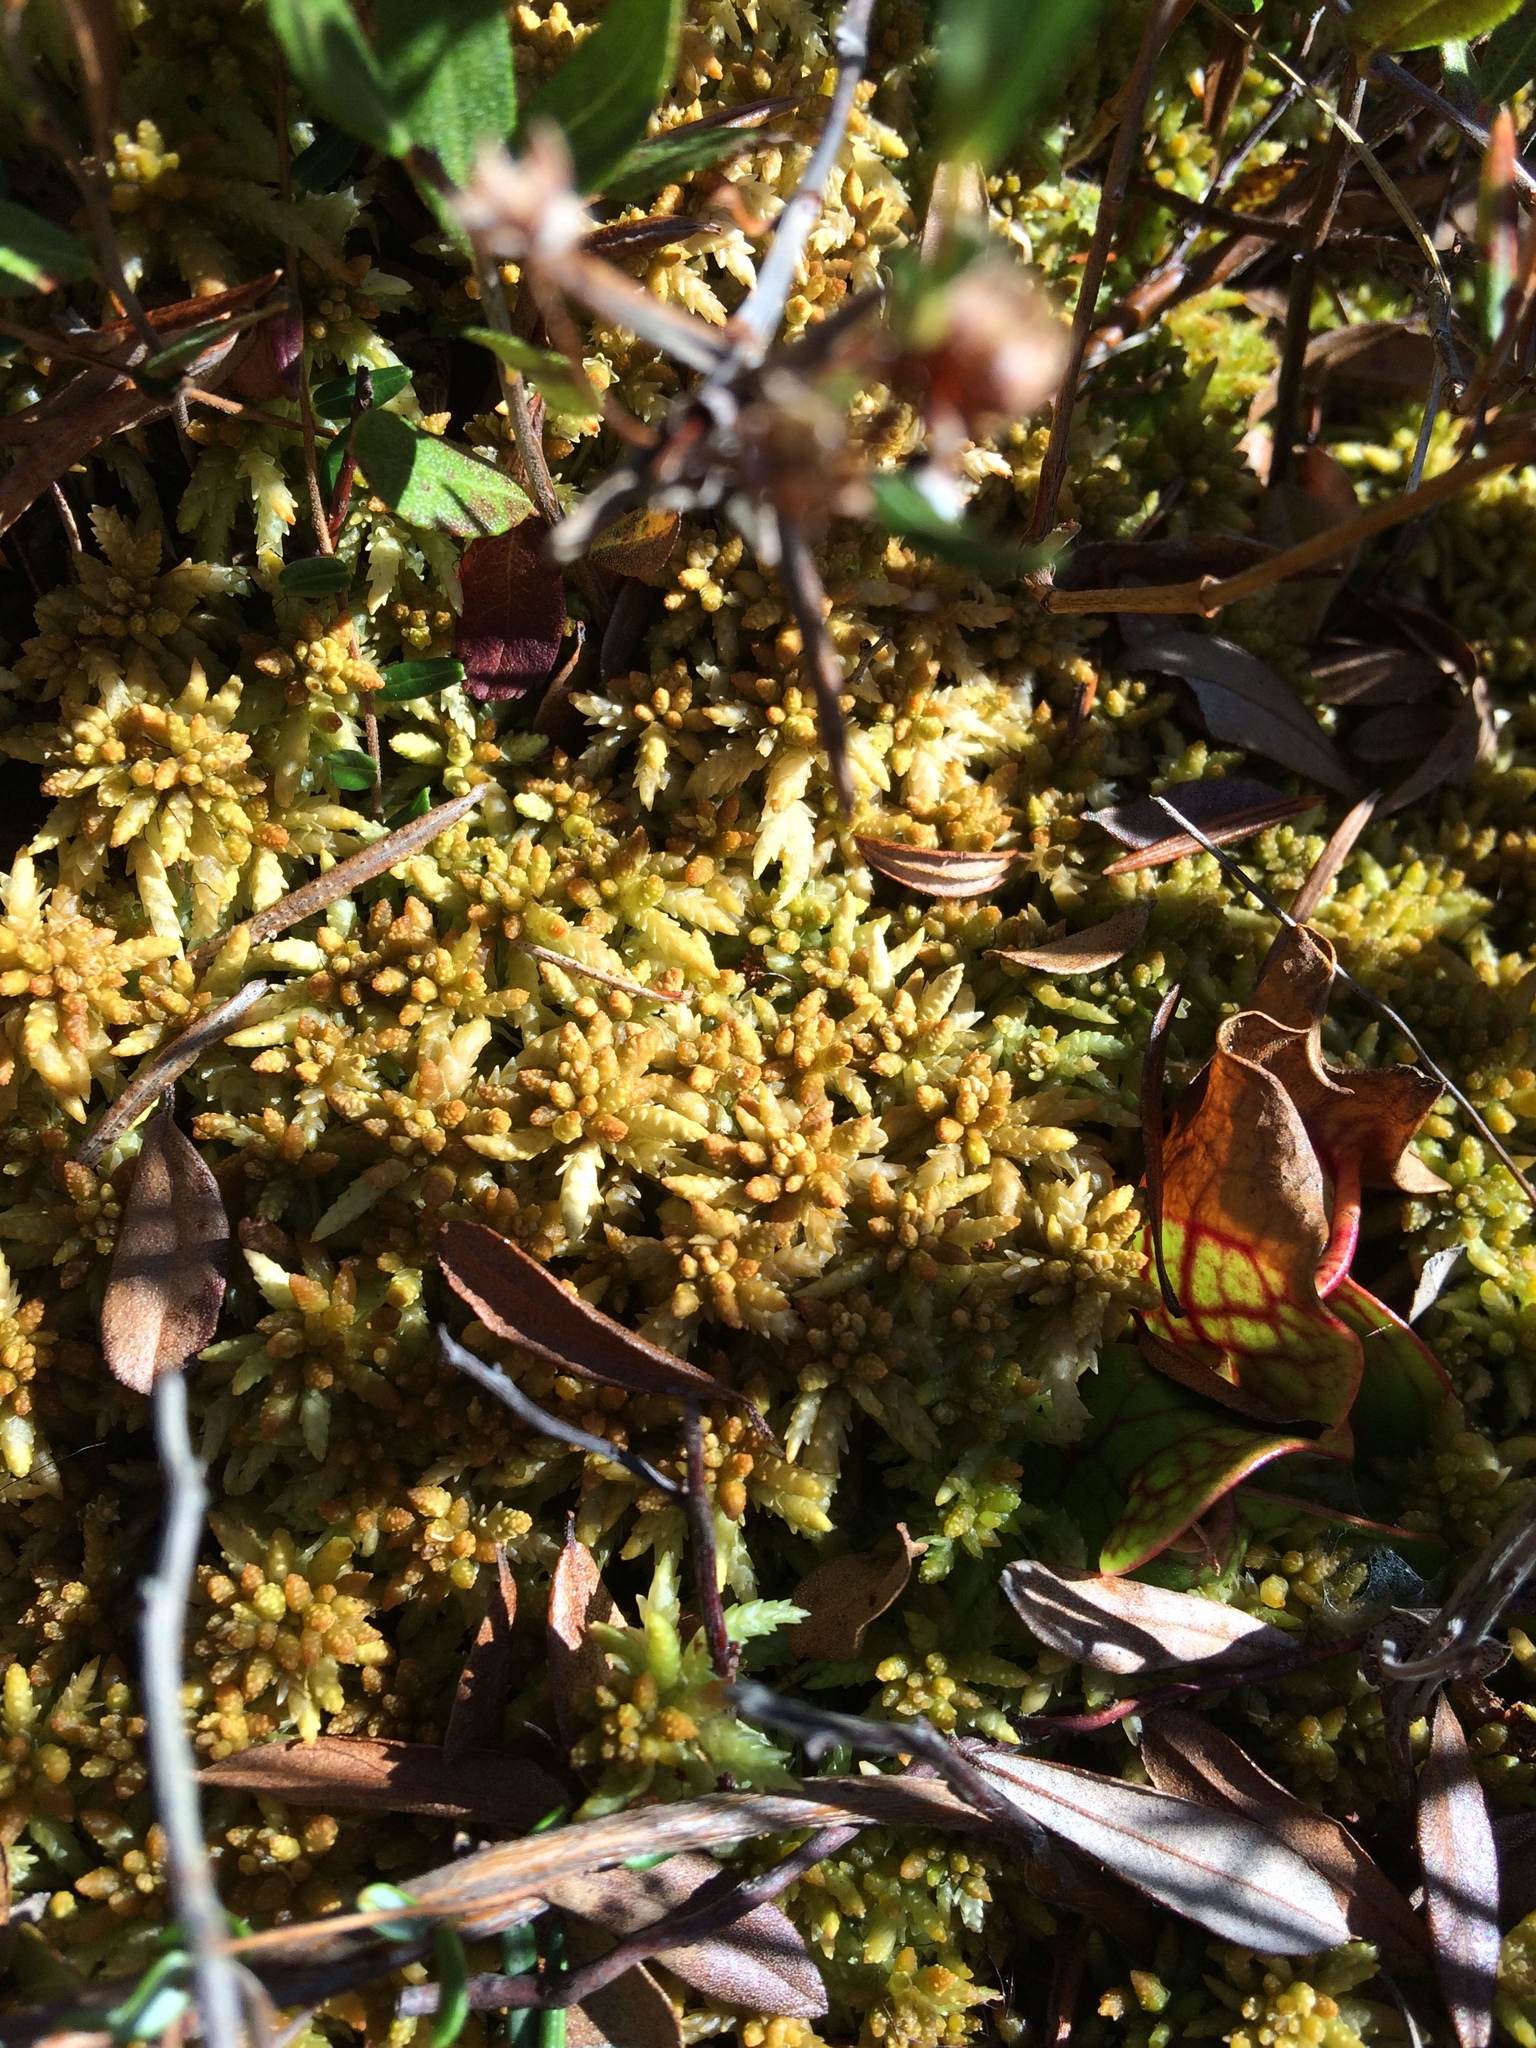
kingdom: Plantae
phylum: Bryophyta
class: Sphagnopsida
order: Sphagnales
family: Sphagnaceae
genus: Sphagnum
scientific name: Sphagnum papillosum
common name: Papillose peat moss
